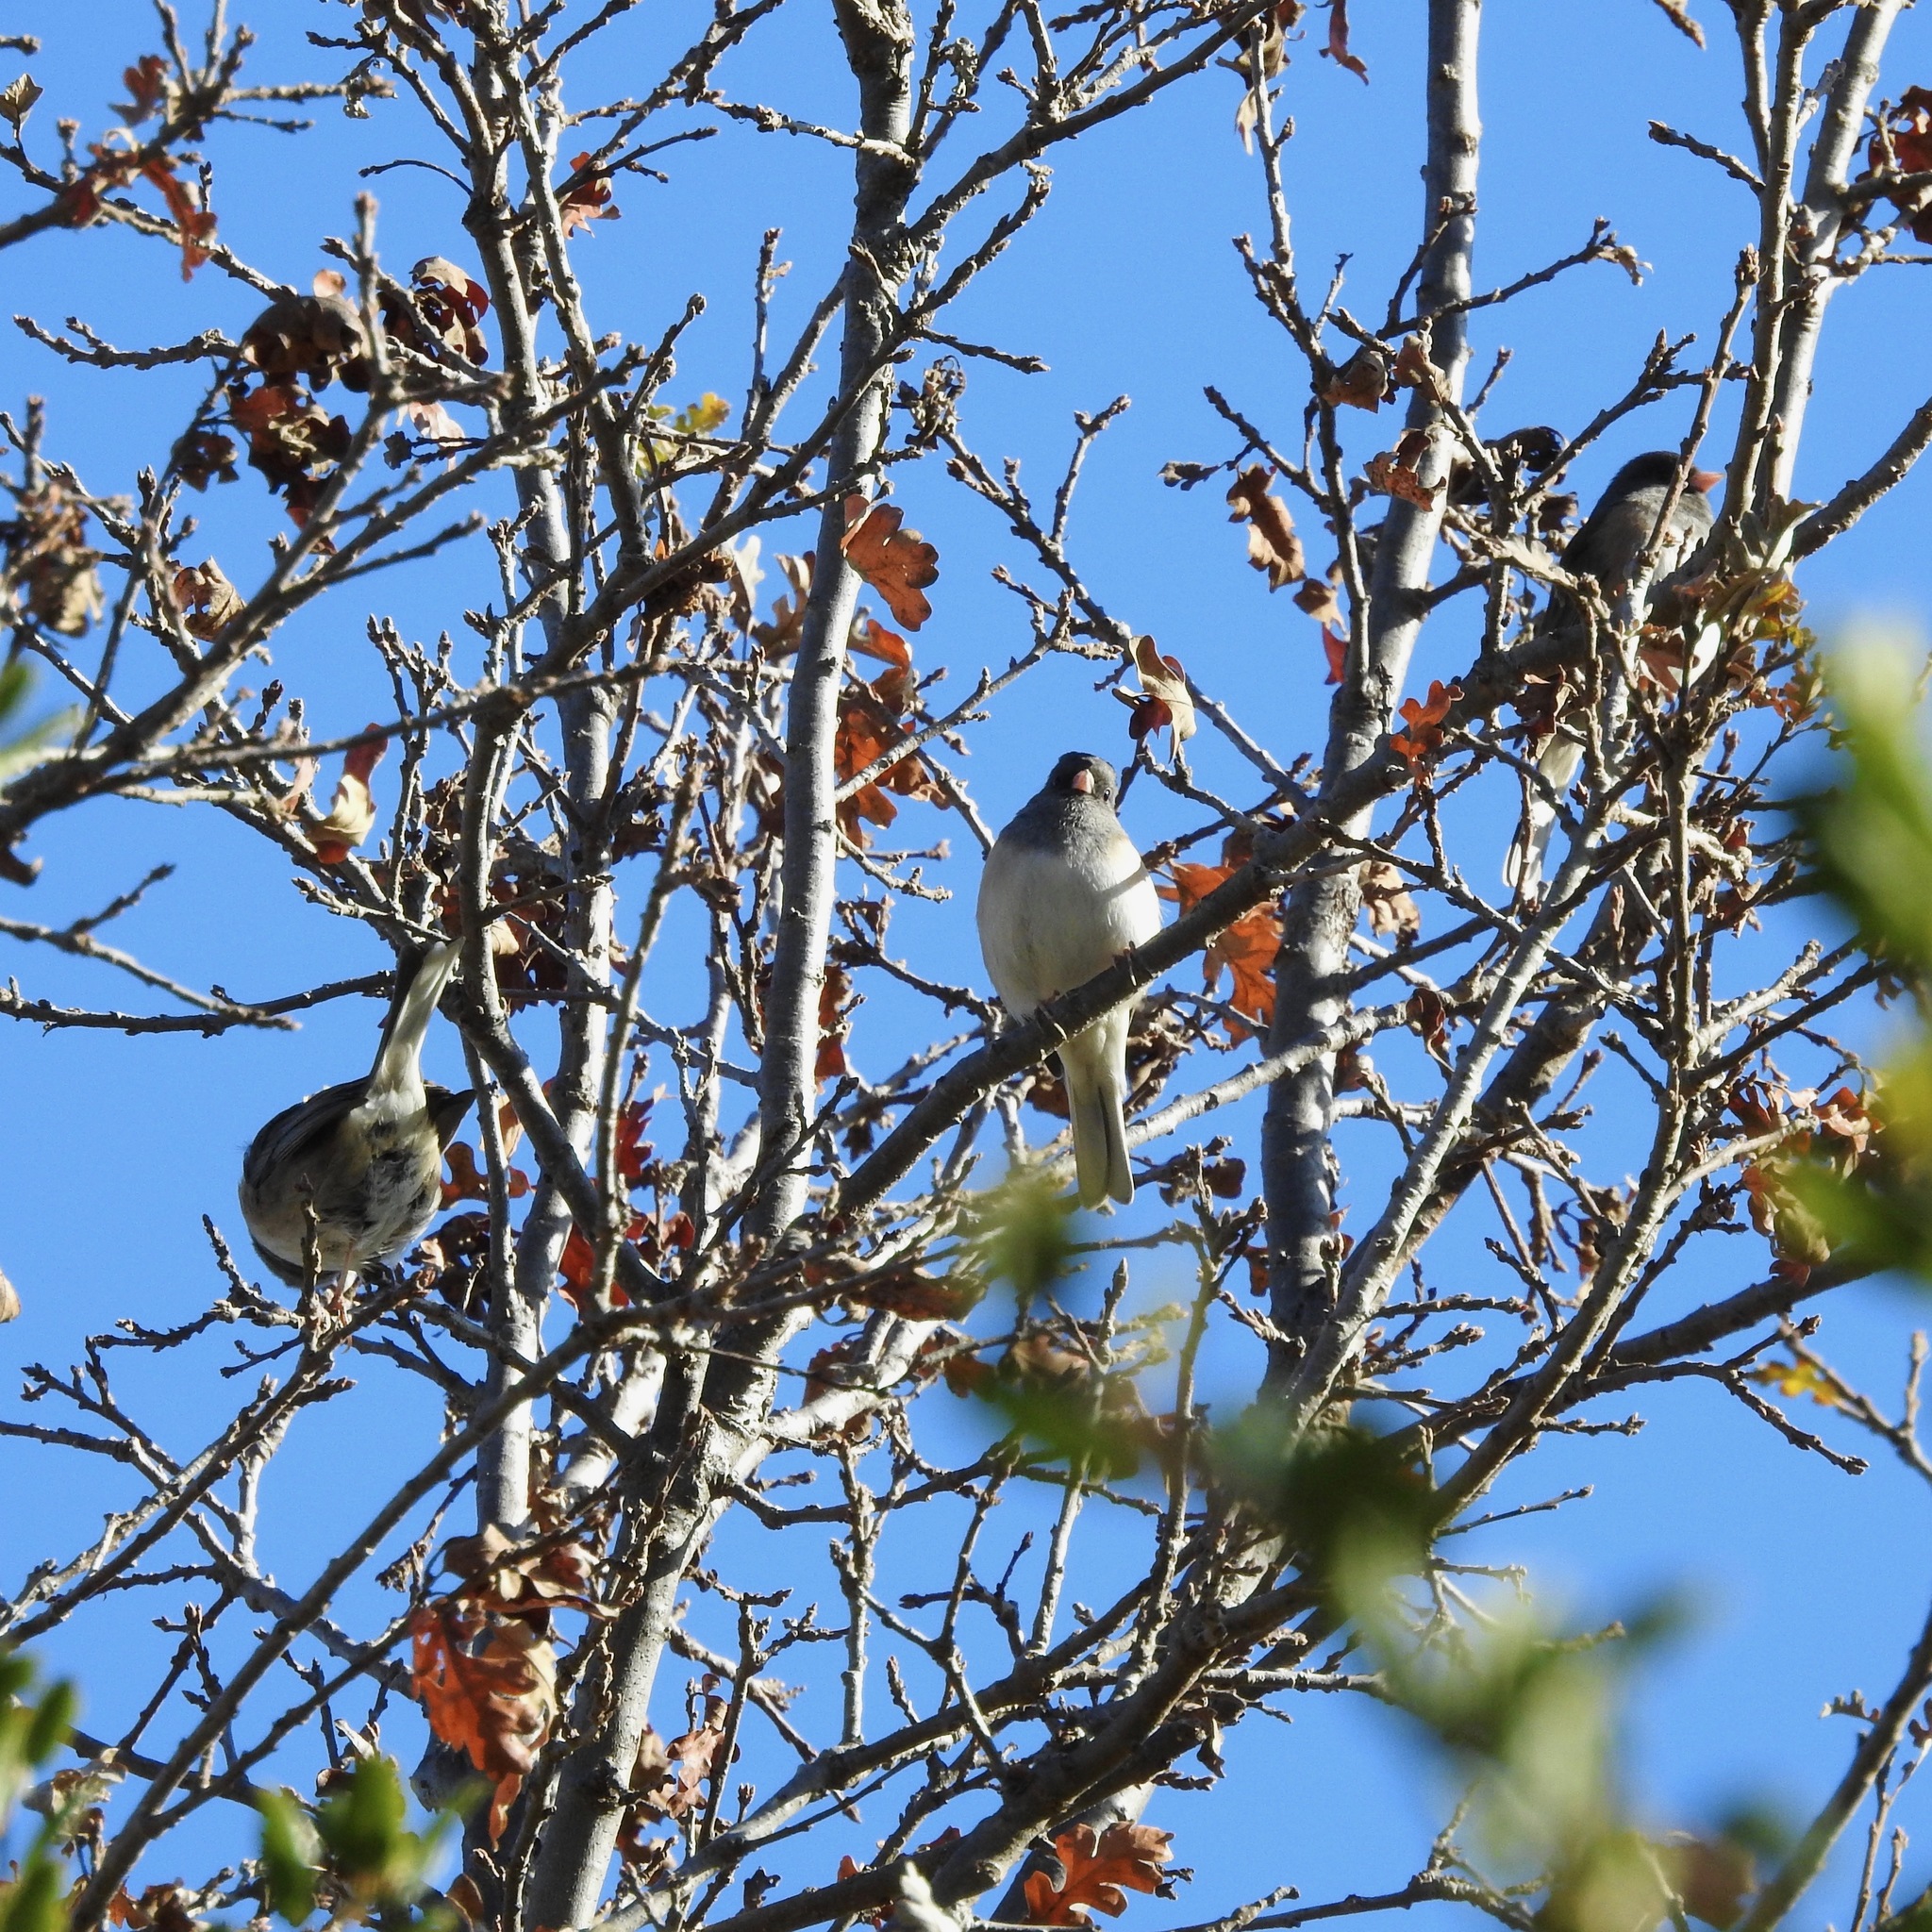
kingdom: Animalia
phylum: Chordata
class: Aves
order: Passeriformes
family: Passerellidae
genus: Junco
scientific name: Junco hyemalis
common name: Dark-eyed junco
